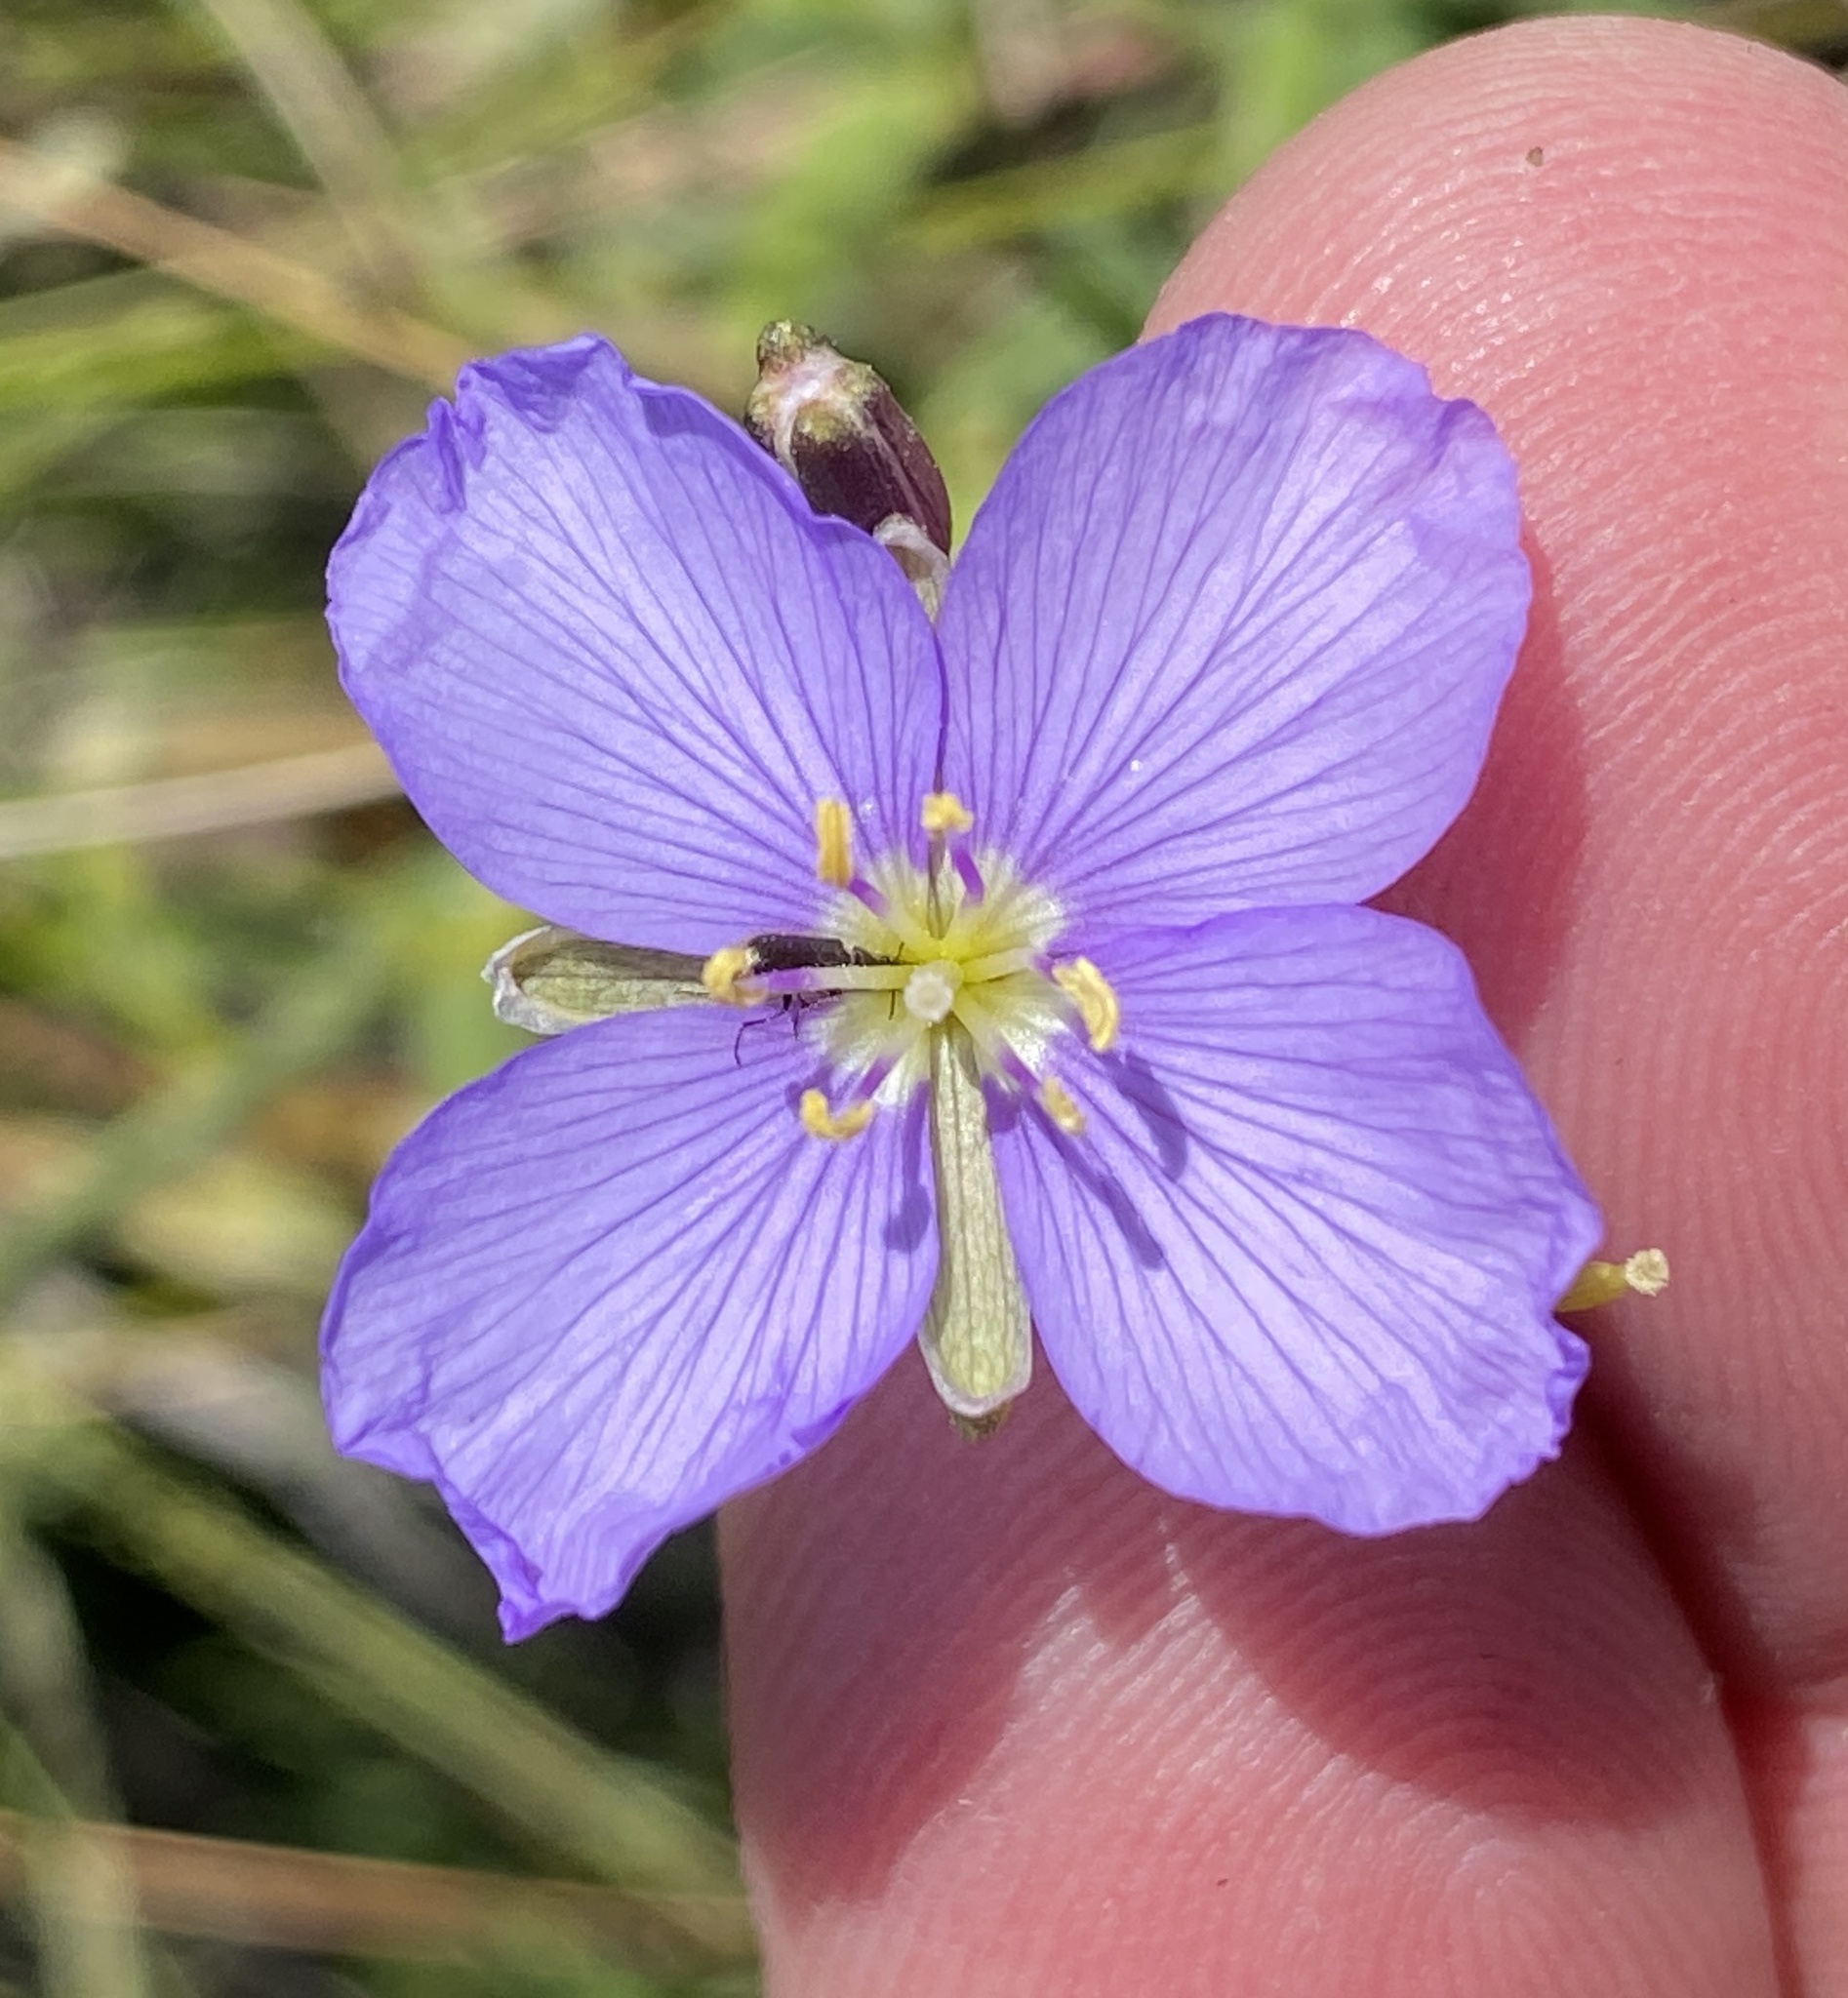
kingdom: Plantae
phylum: Tracheophyta
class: Magnoliopsida
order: Brassicales
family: Brassicaceae
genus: Heliophila
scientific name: Heliophila subulata
